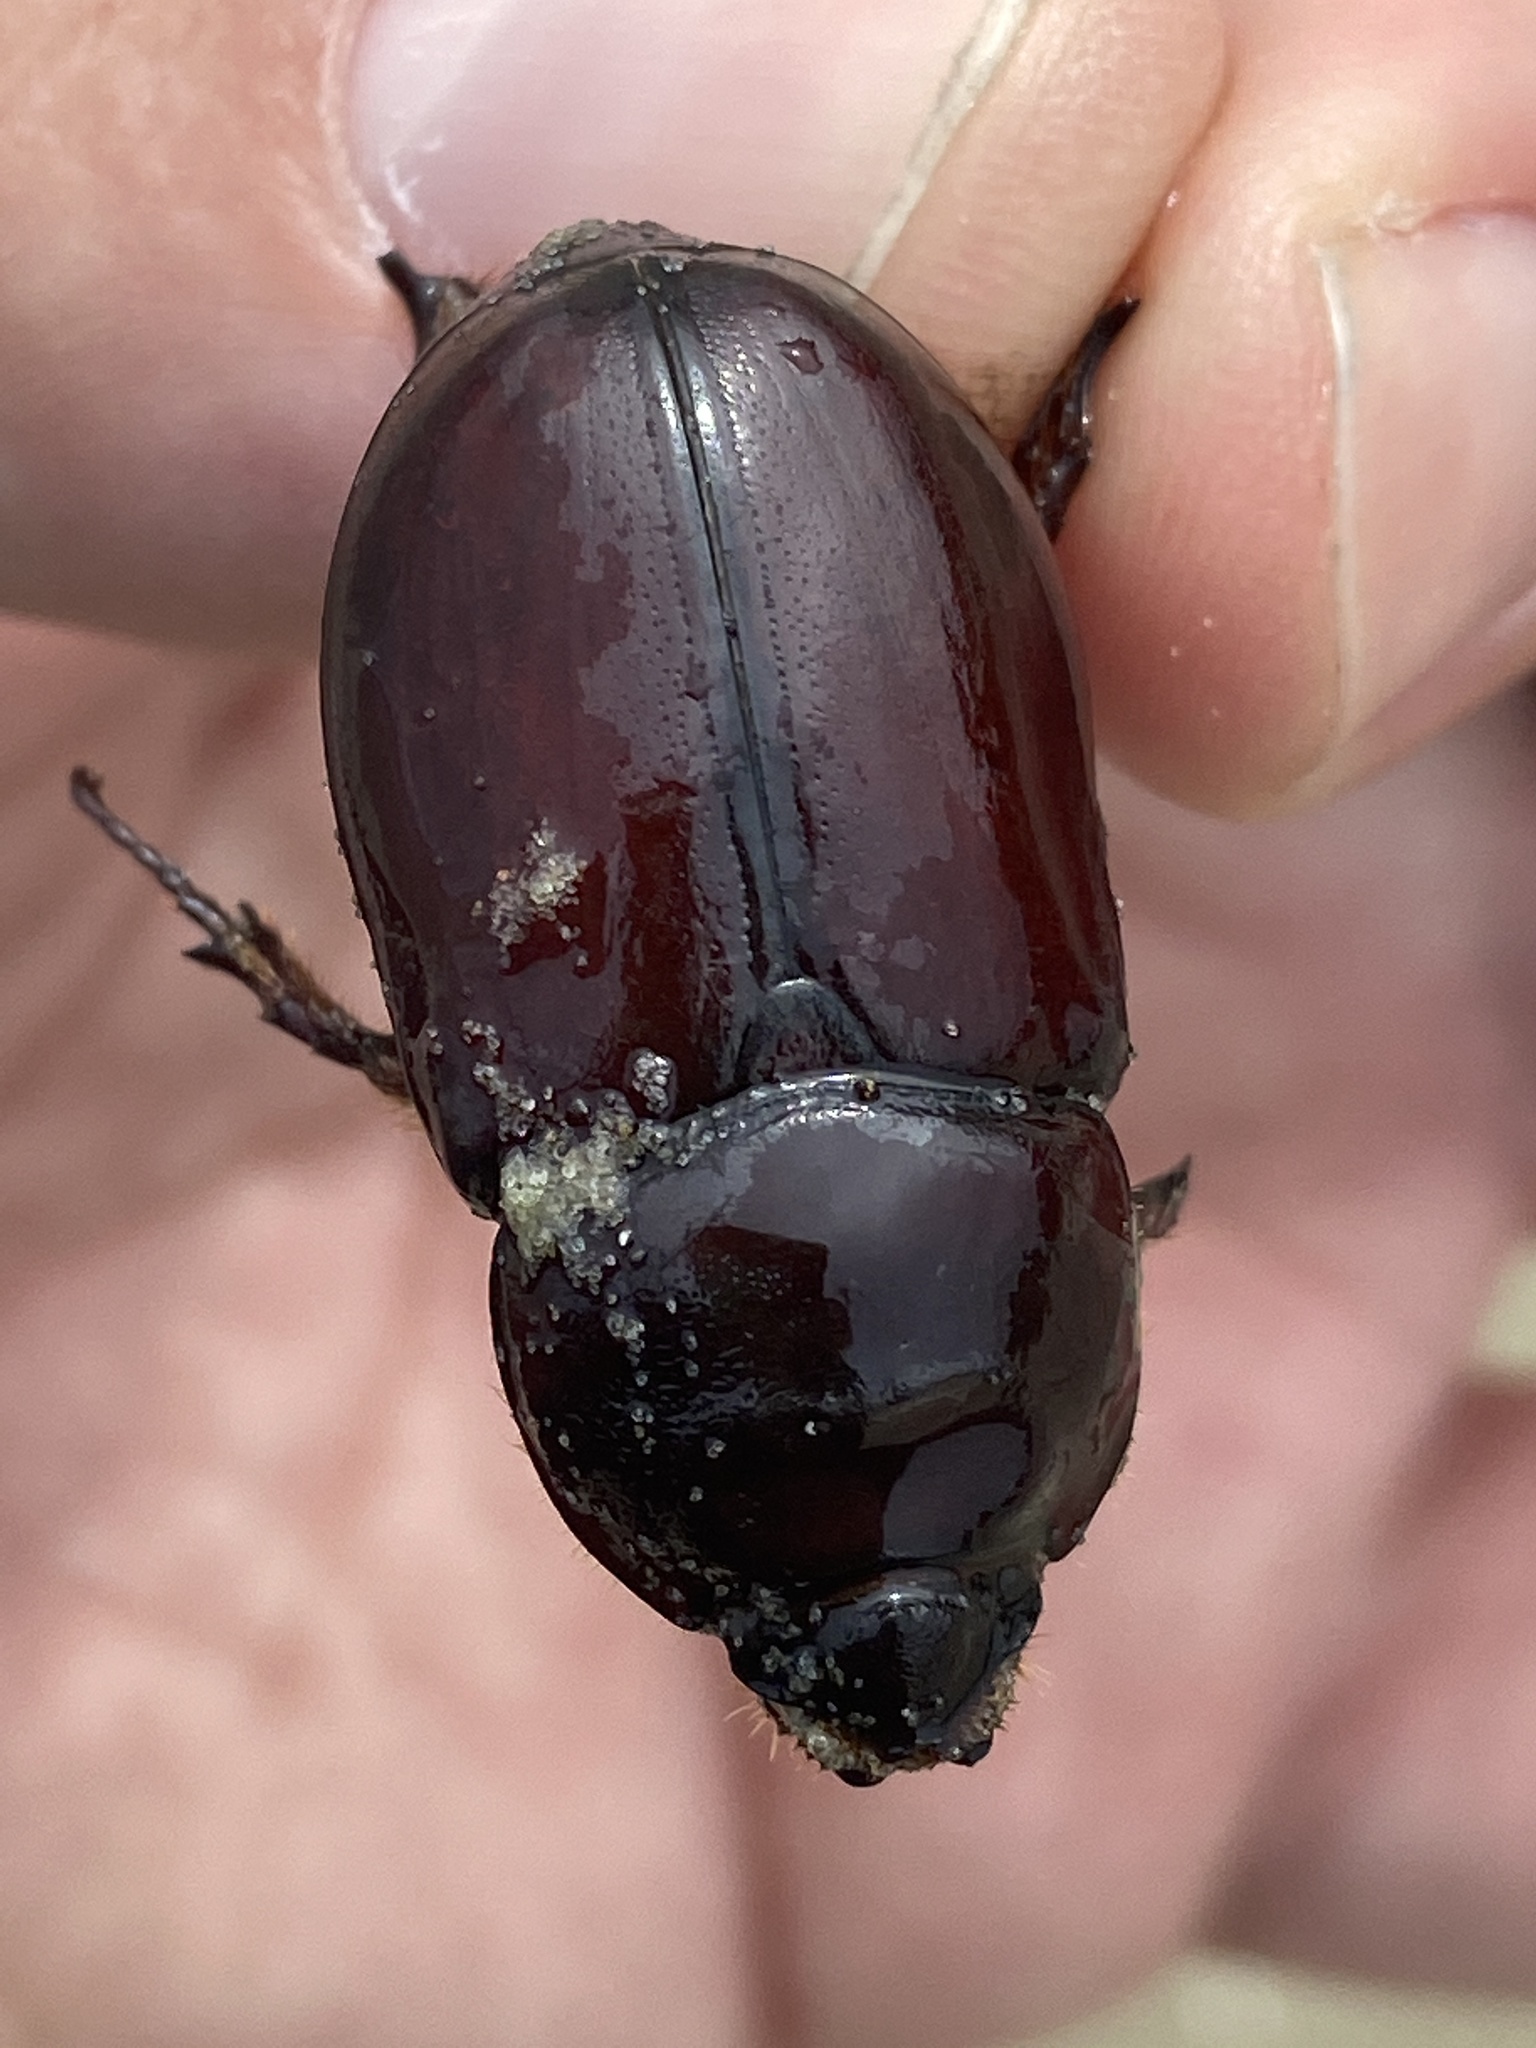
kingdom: Animalia
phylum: Arthropoda
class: Insecta
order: Coleoptera
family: Scarabaeidae
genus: Oryctes
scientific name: Oryctes nasicornis
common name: European rhinoceros beetle
